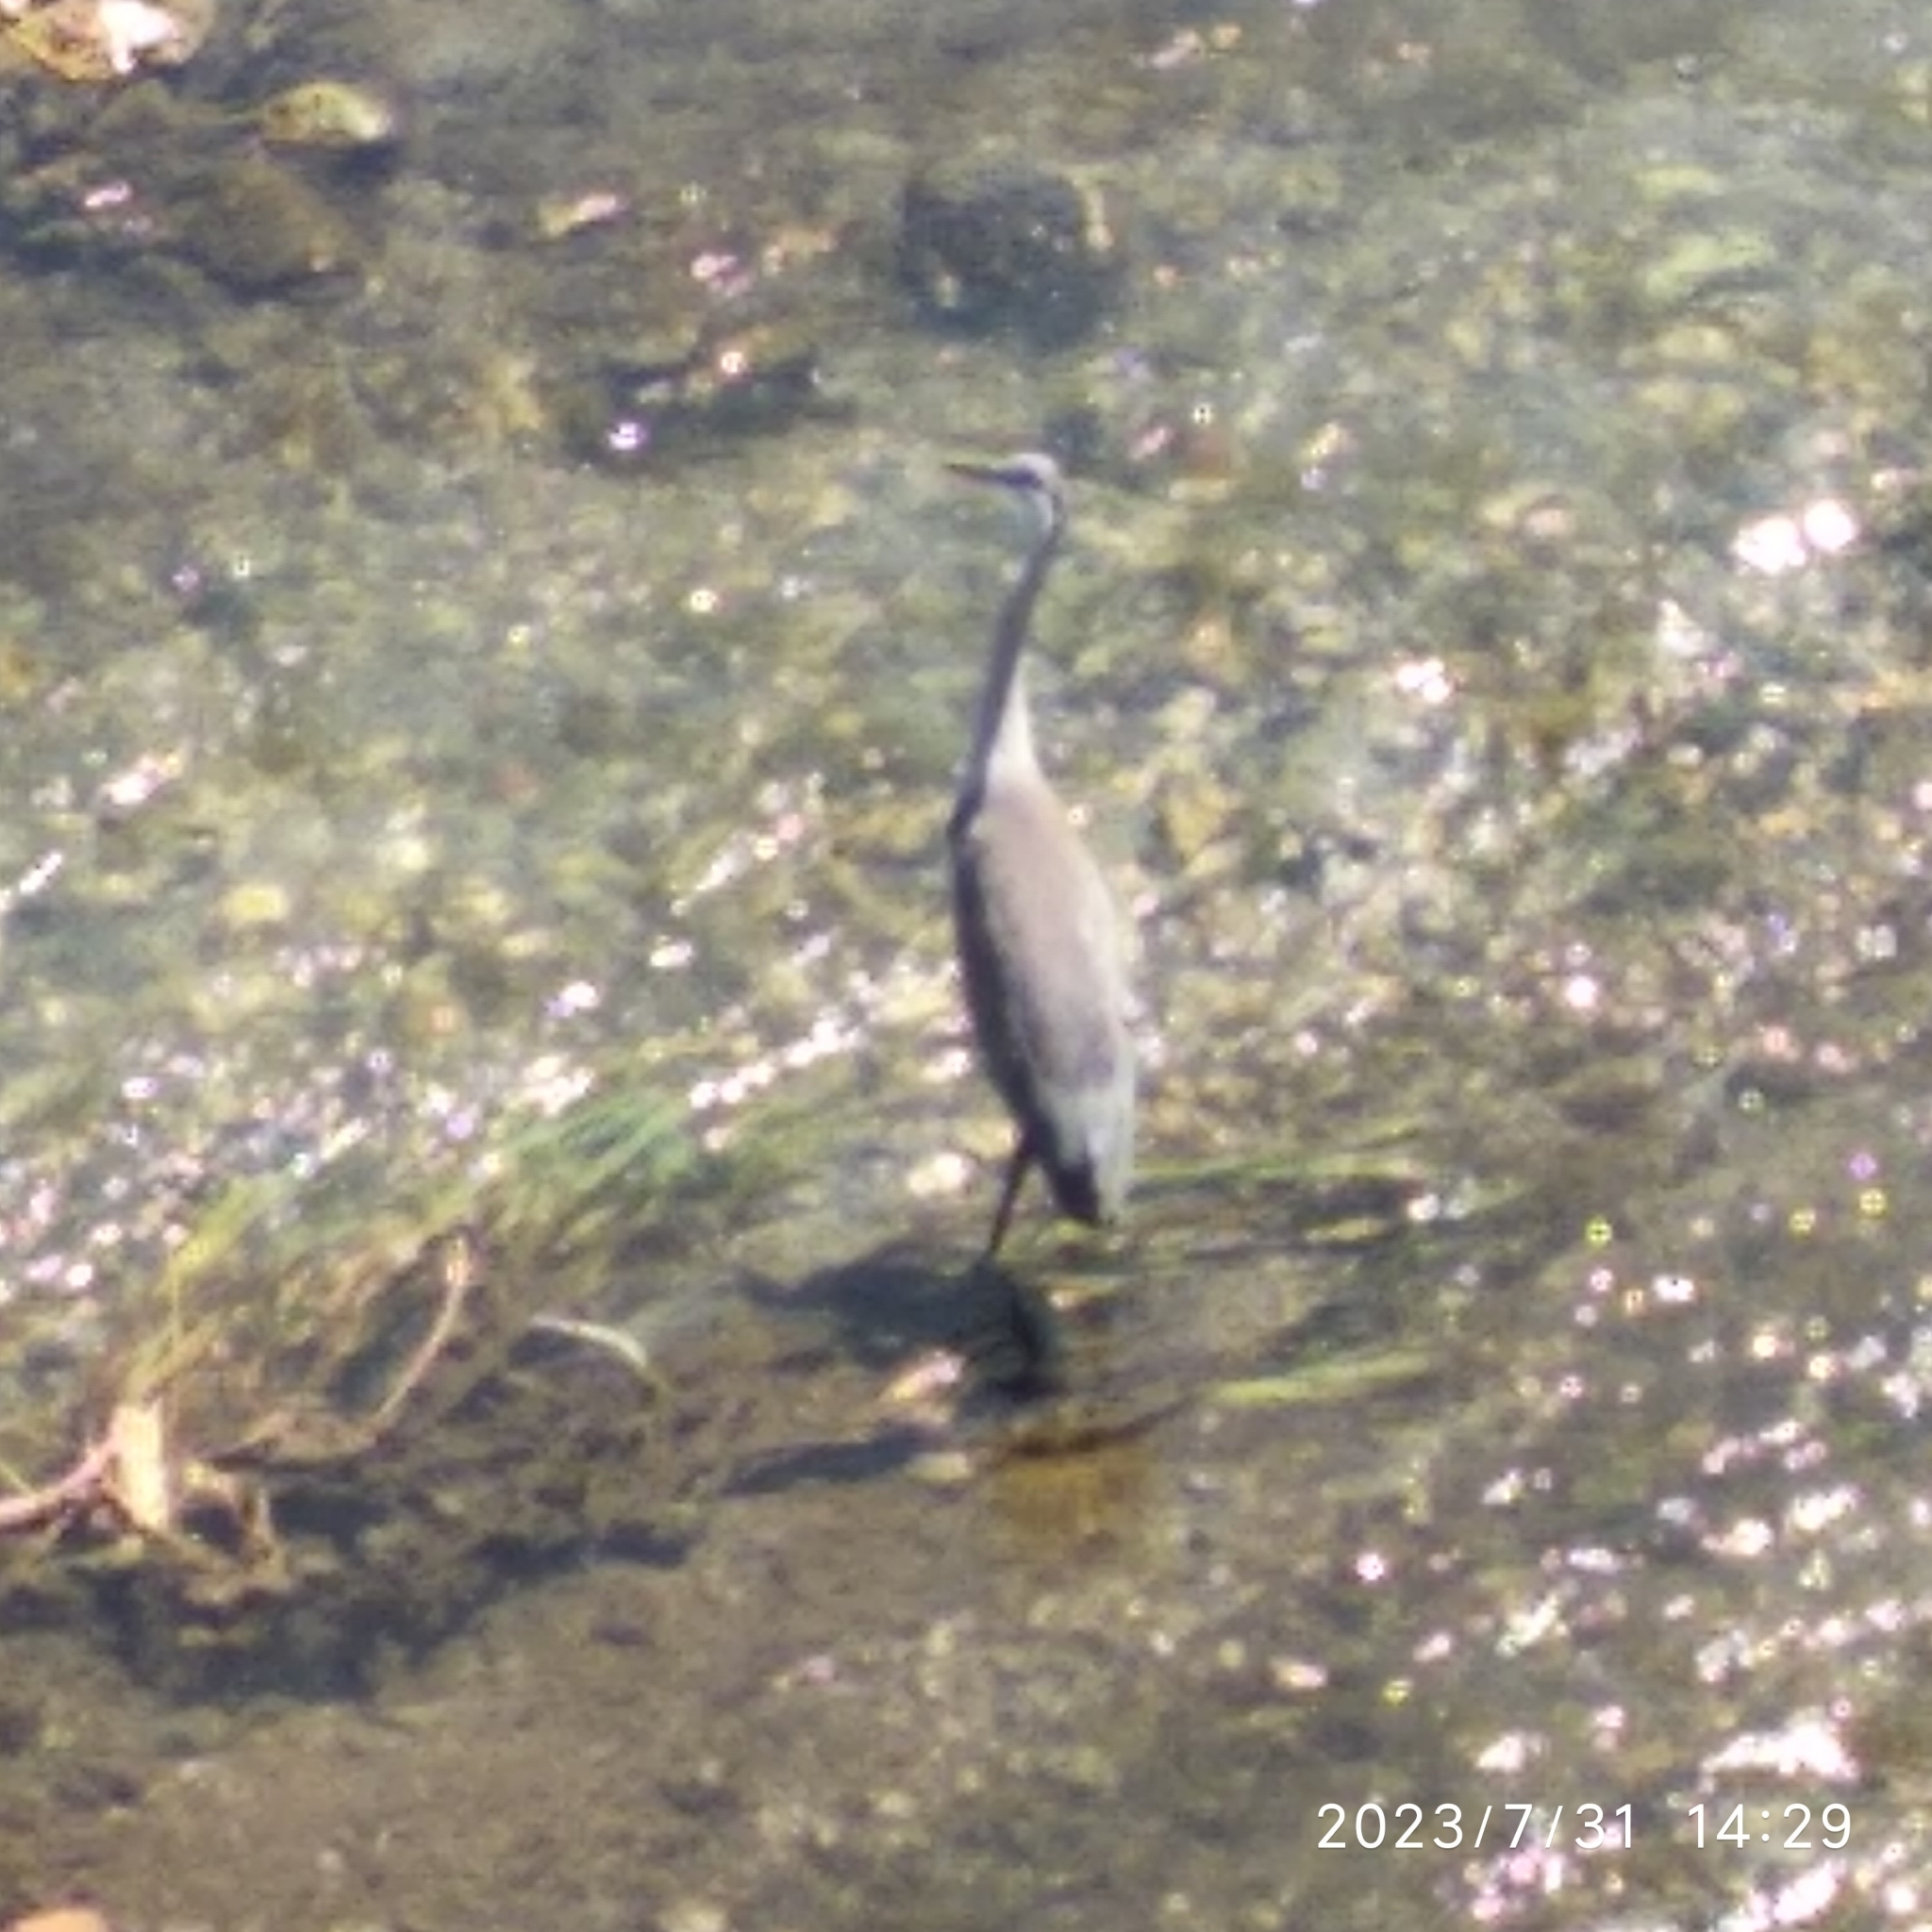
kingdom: Animalia
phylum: Chordata
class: Aves
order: Pelecaniformes
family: Ardeidae
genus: Ardea
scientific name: Ardea cinerea
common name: Grey heron
